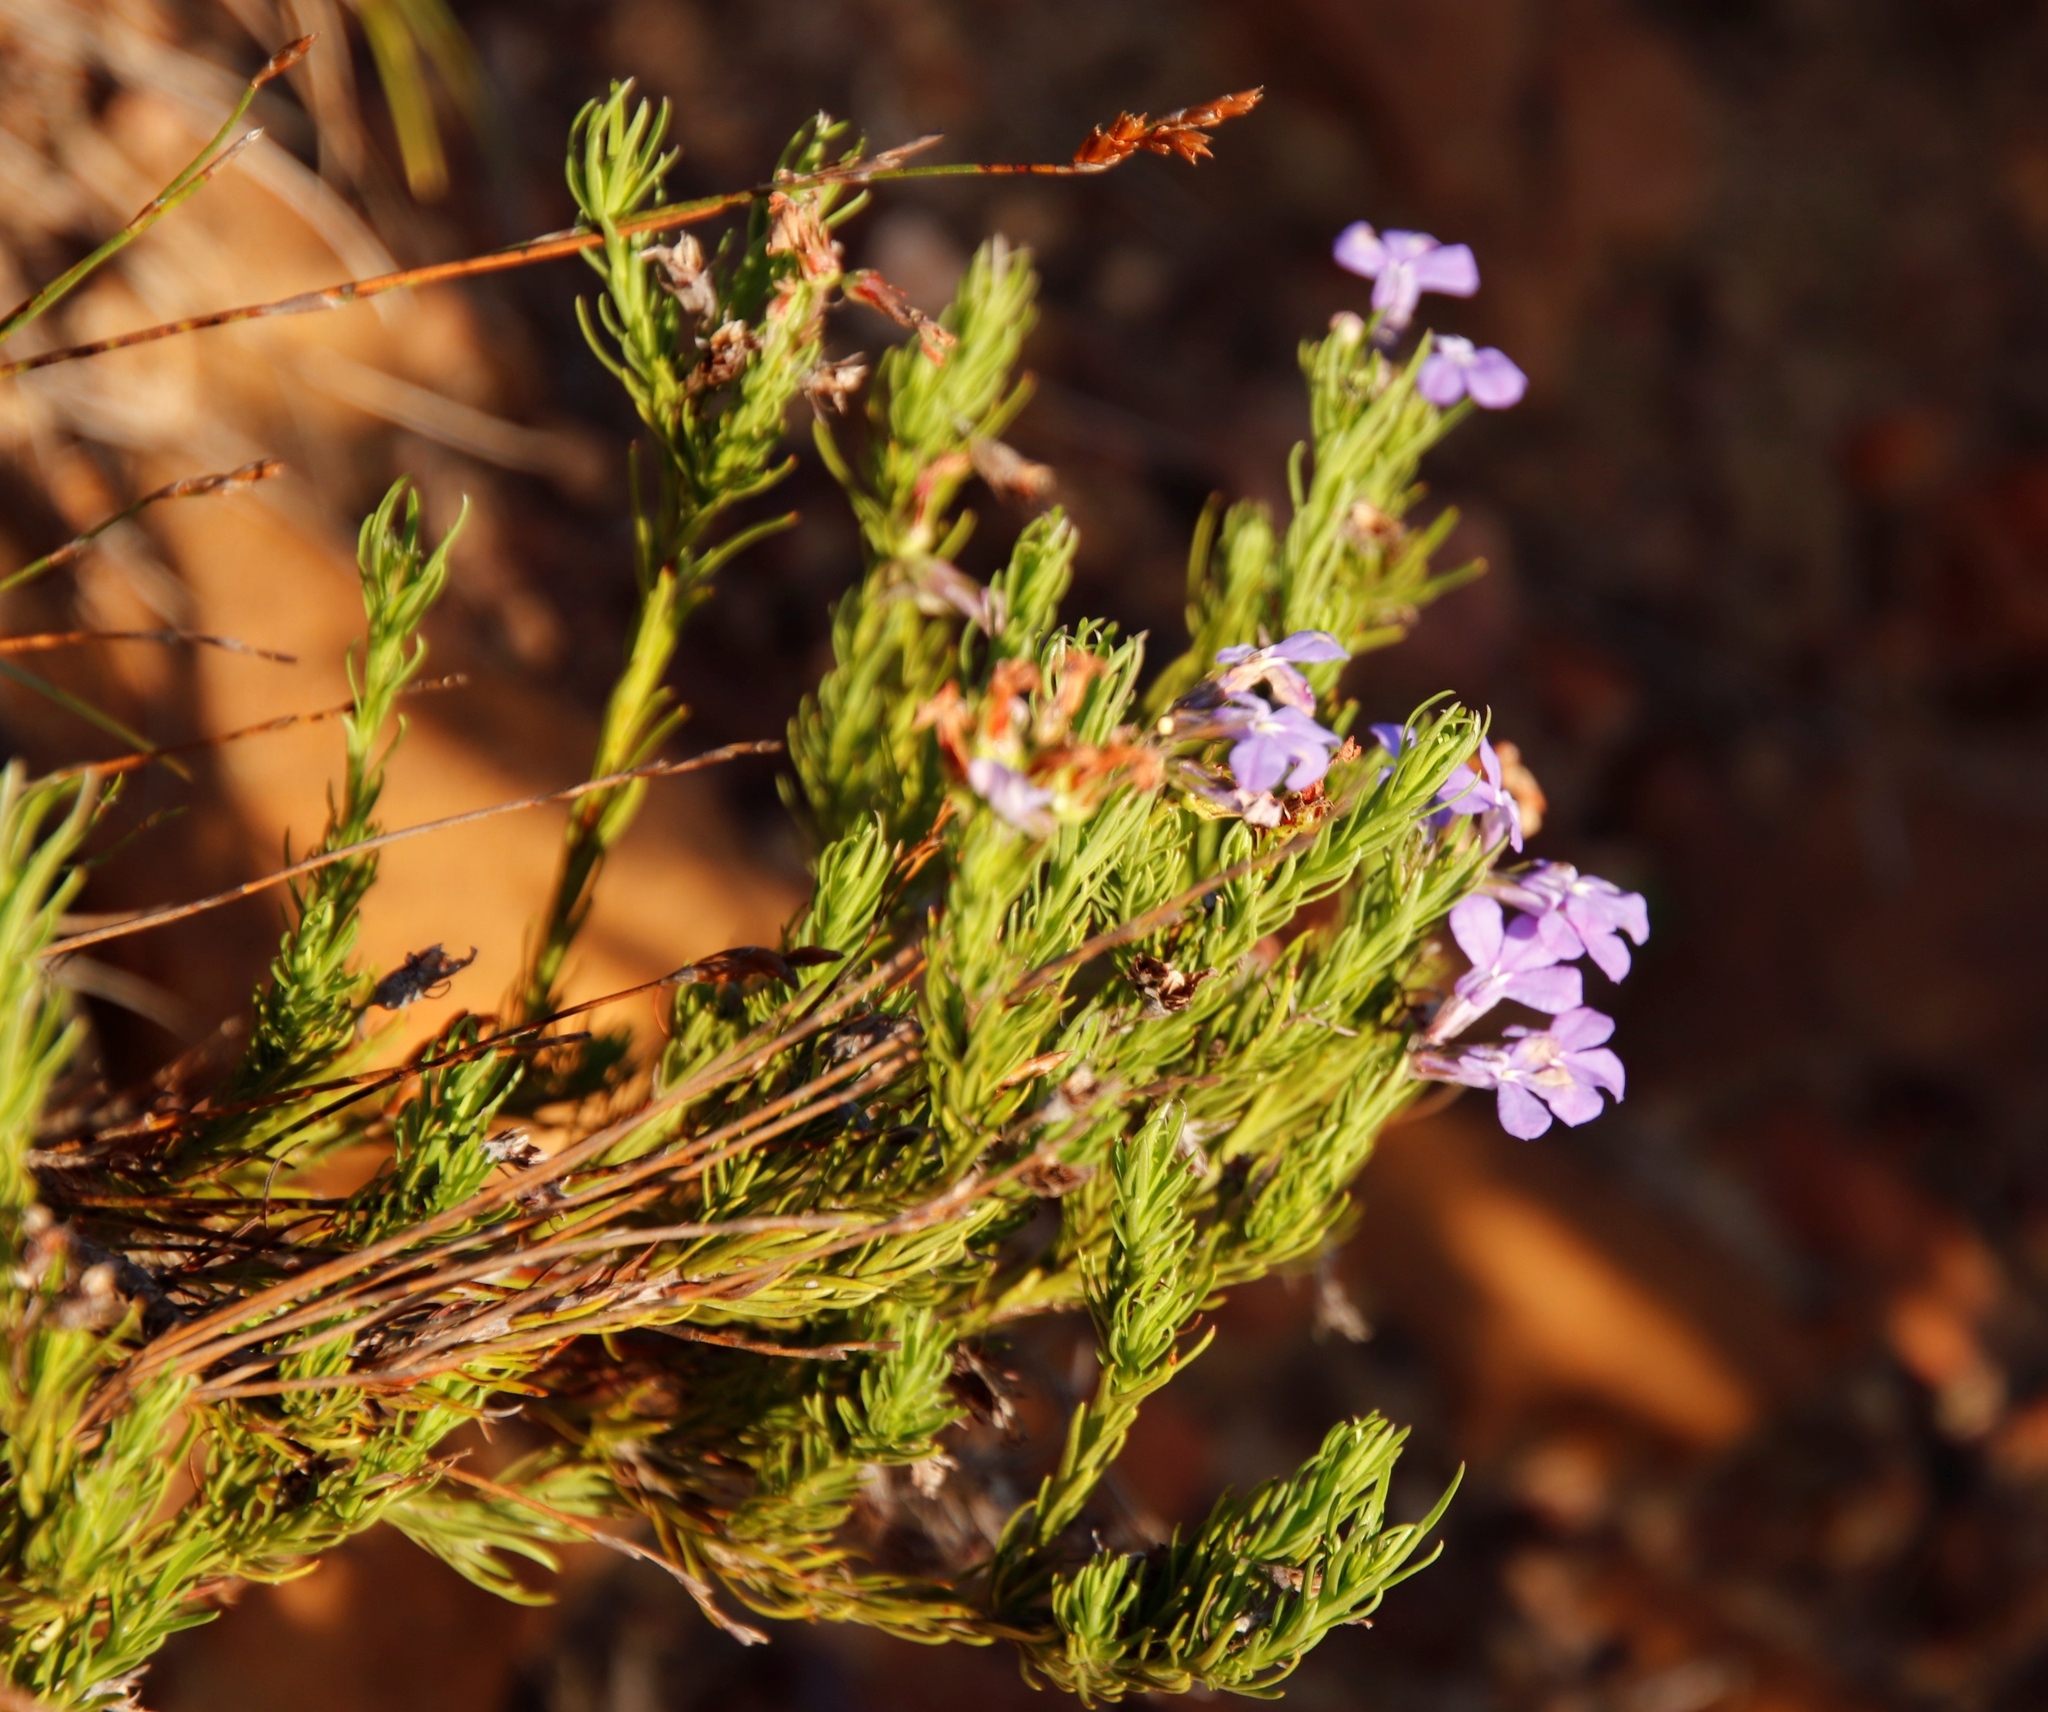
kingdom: Plantae
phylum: Tracheophyta
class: Magnoliopsida
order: Asterales
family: Campanulaceae
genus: Lobelia
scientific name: Lobelia pinifolia
